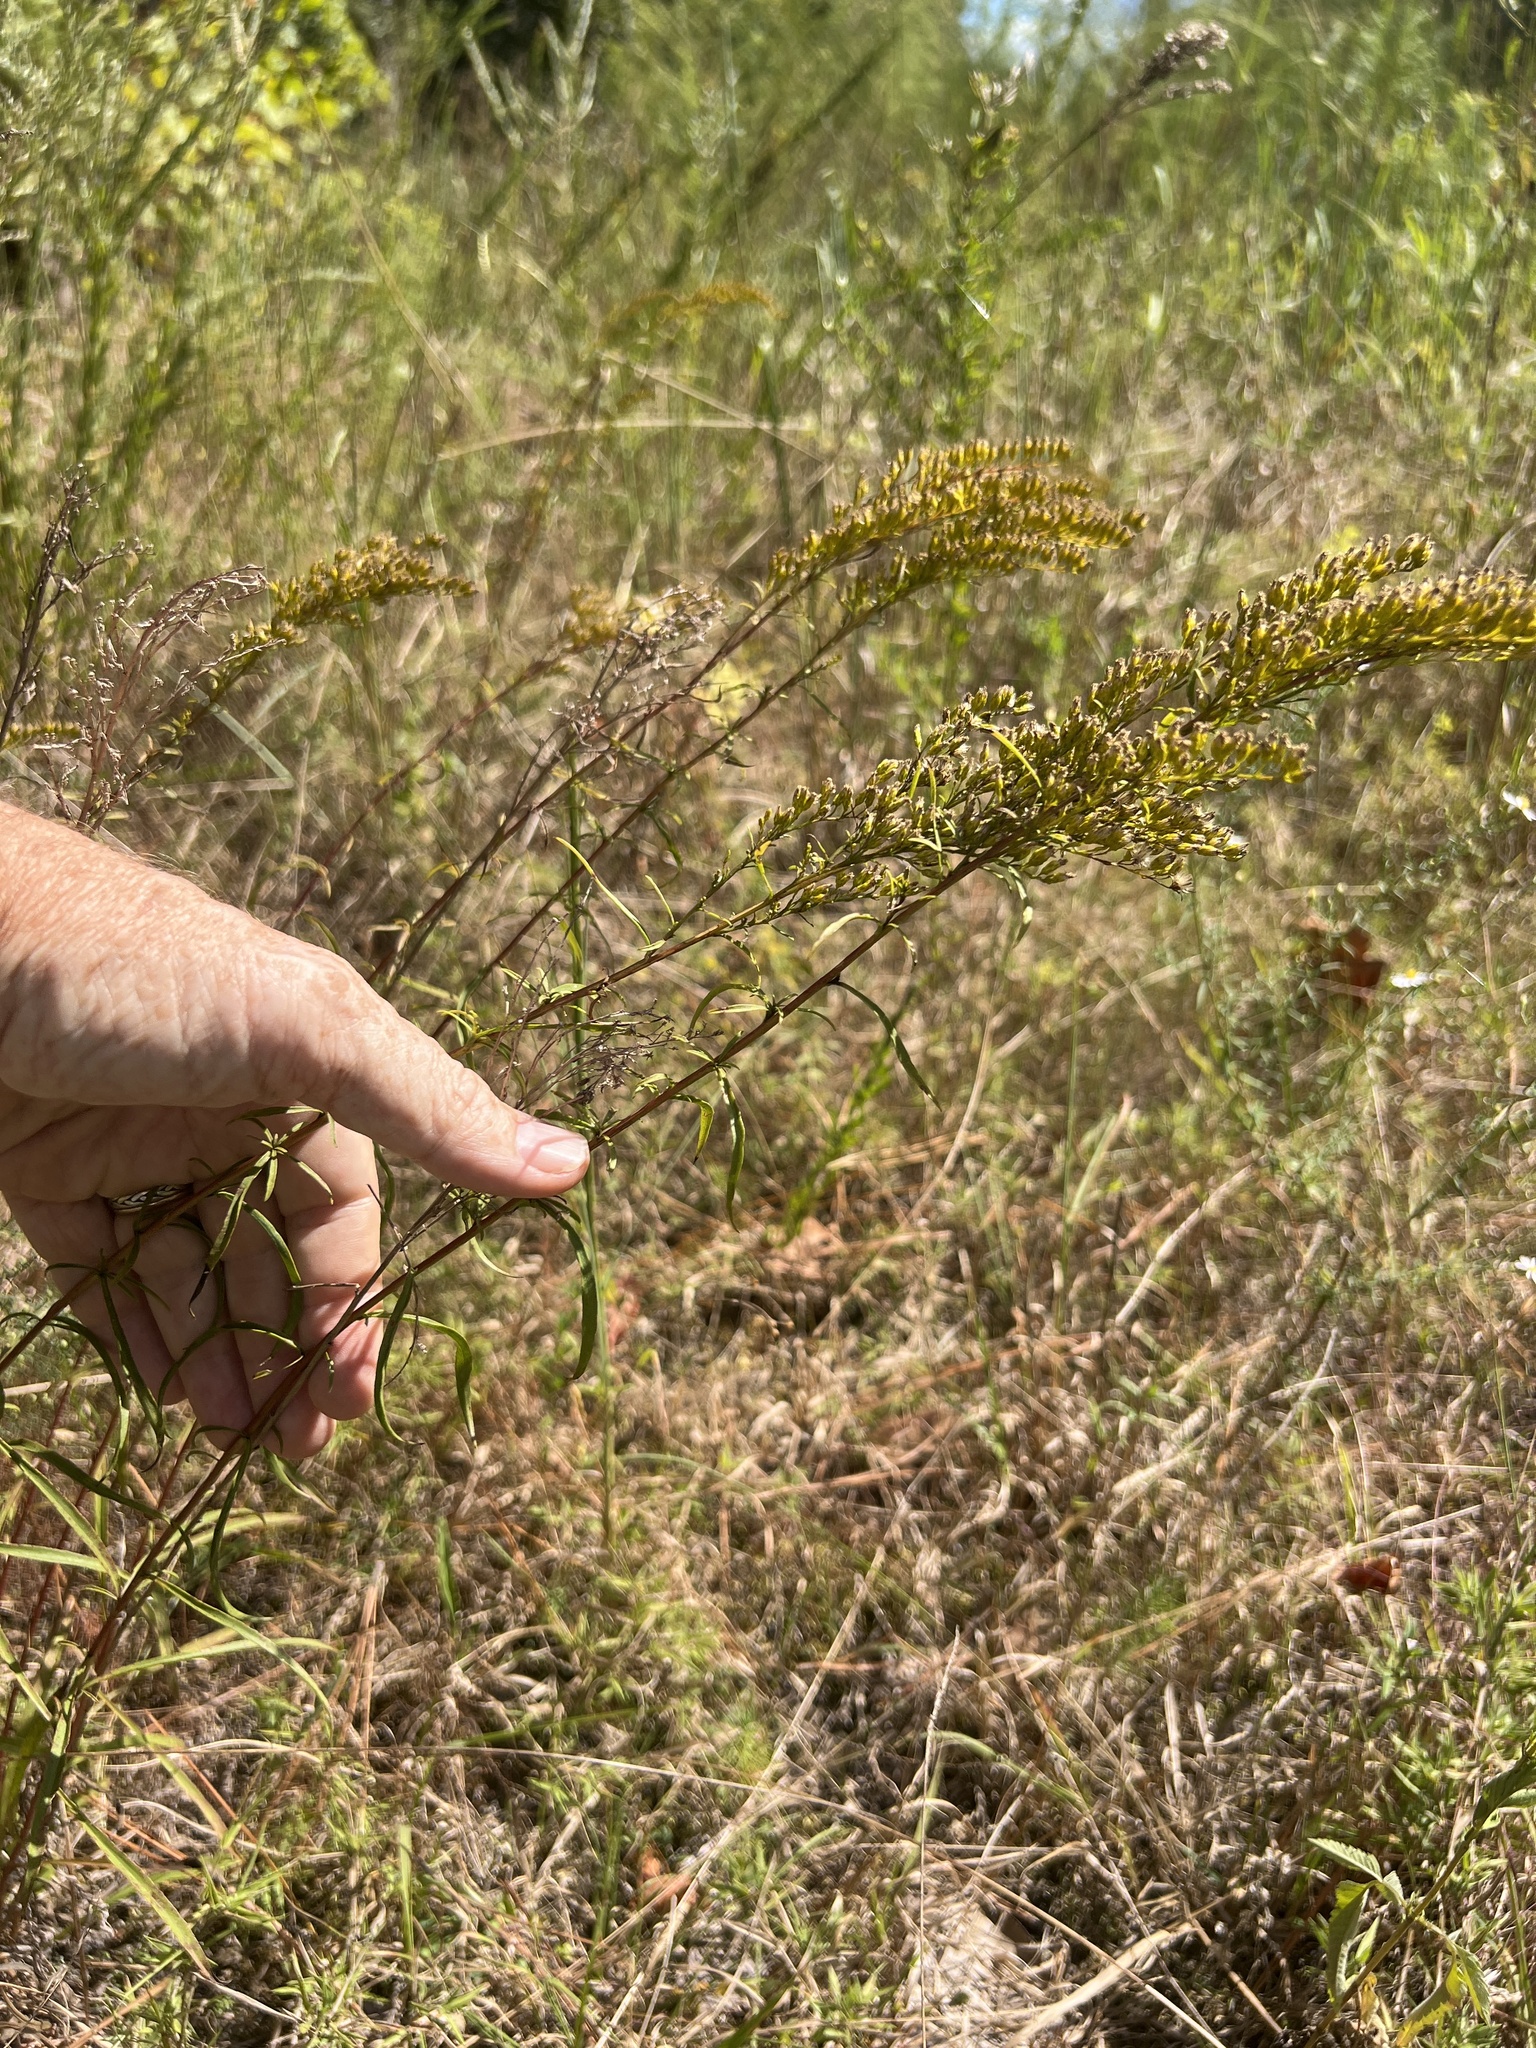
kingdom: Plantae
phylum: Tracheophyta
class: Magnoliopsida
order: Asterales
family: Asteraceae
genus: Solidago
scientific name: Solidago pinetorum
